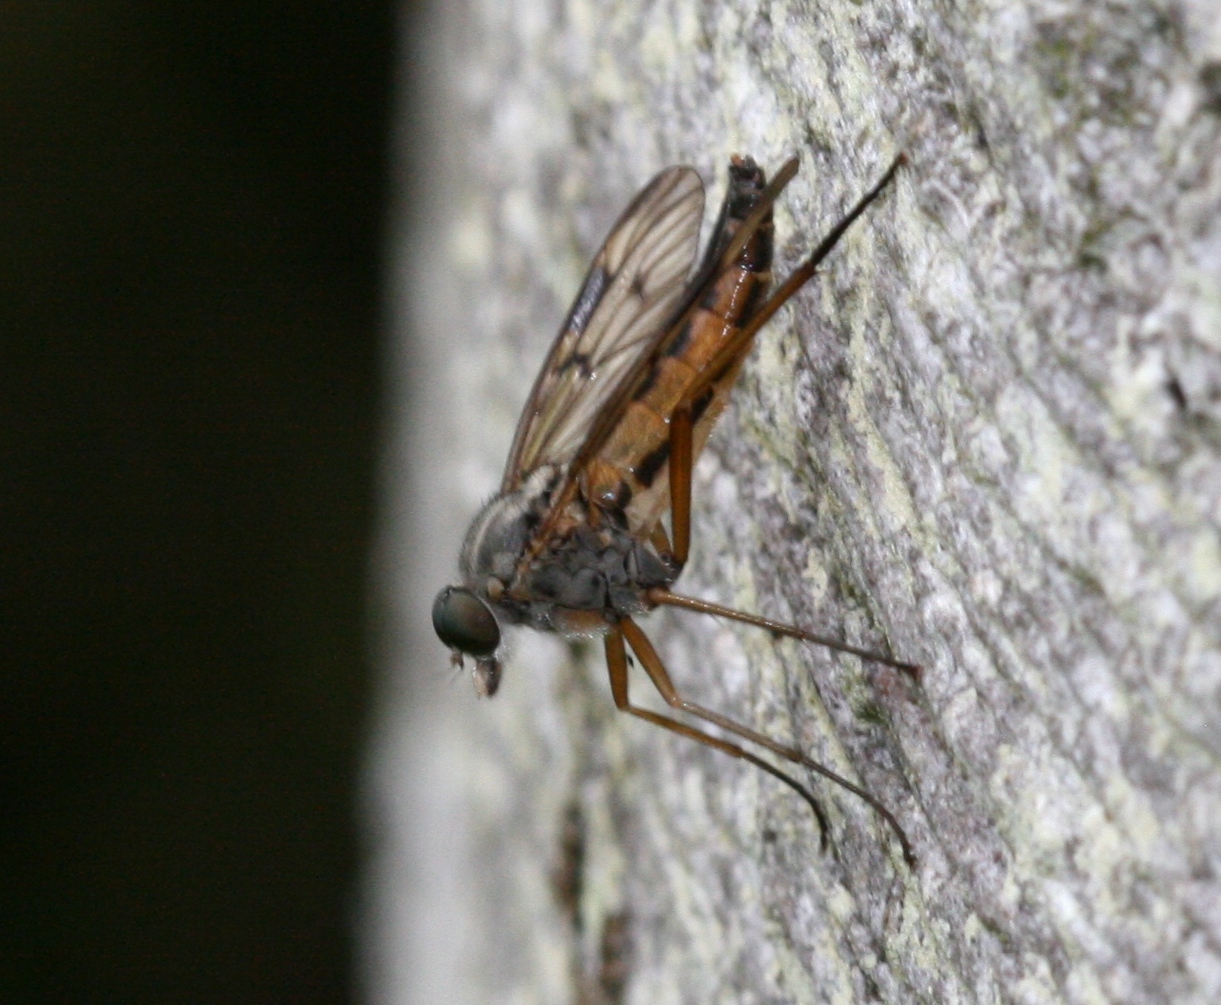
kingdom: Animalia
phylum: Arthropoda
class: Insecta
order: Diptera
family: Rhagionidae
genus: Rhagio
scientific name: Rhagio scolopacea
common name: Downlooker snipefly
